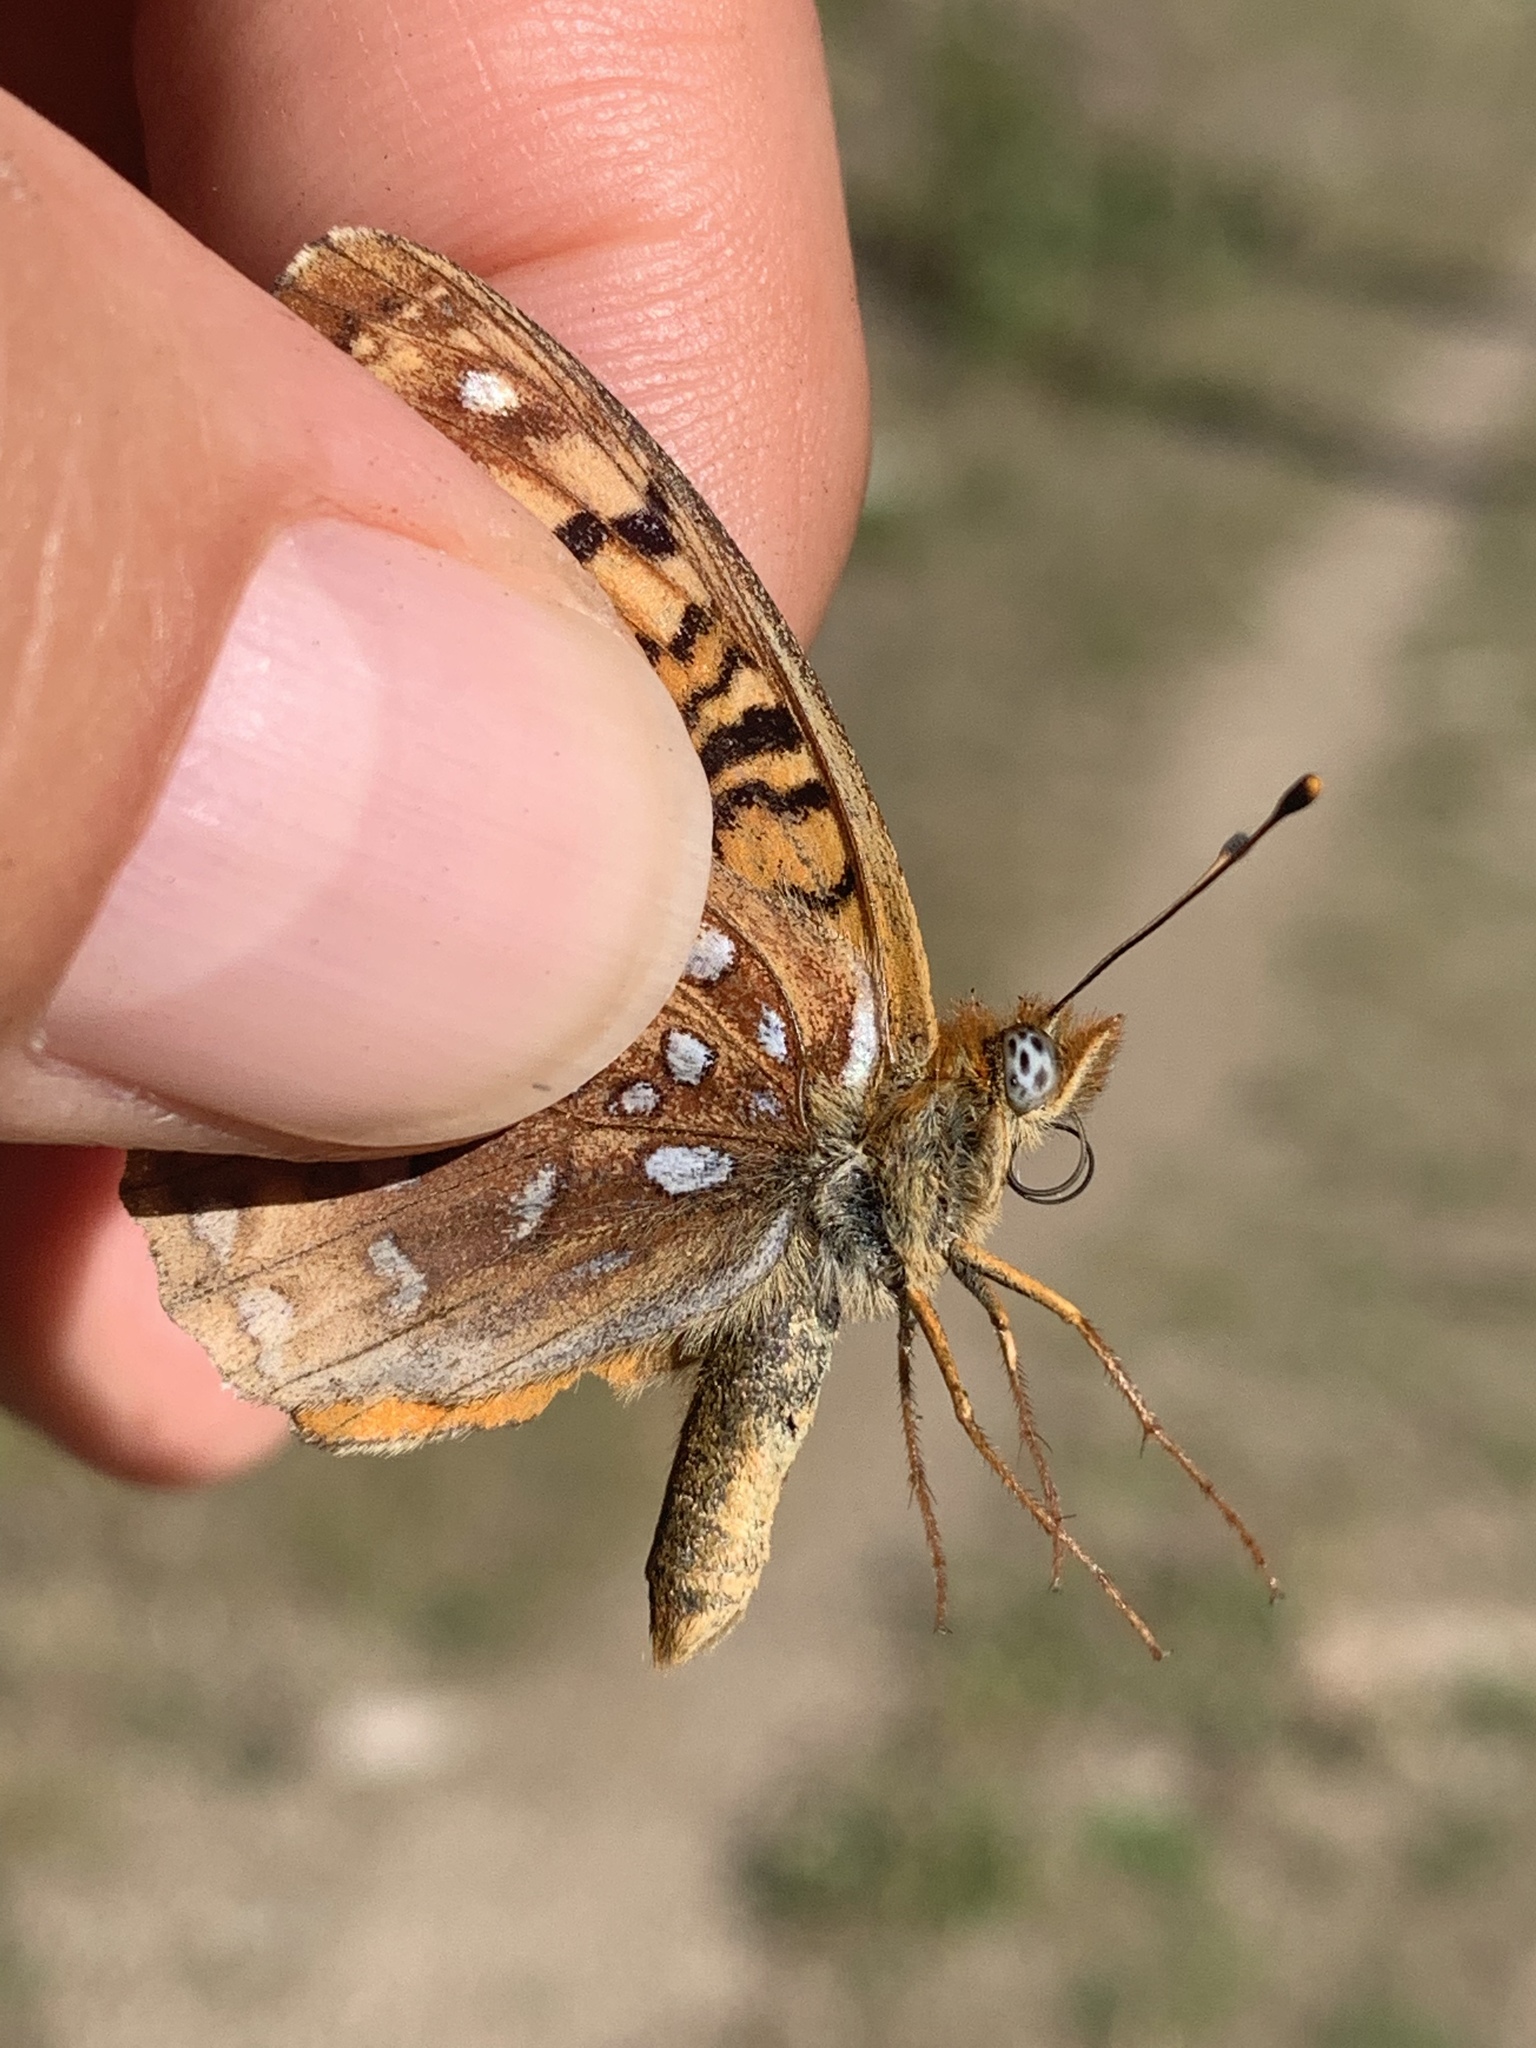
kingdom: Animalia
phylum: Arthropoda
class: Insecta
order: Lepidoptera
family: Nymphalidae
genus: Speyeria
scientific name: Speyeria atlantis
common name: Atlantis fritillary
